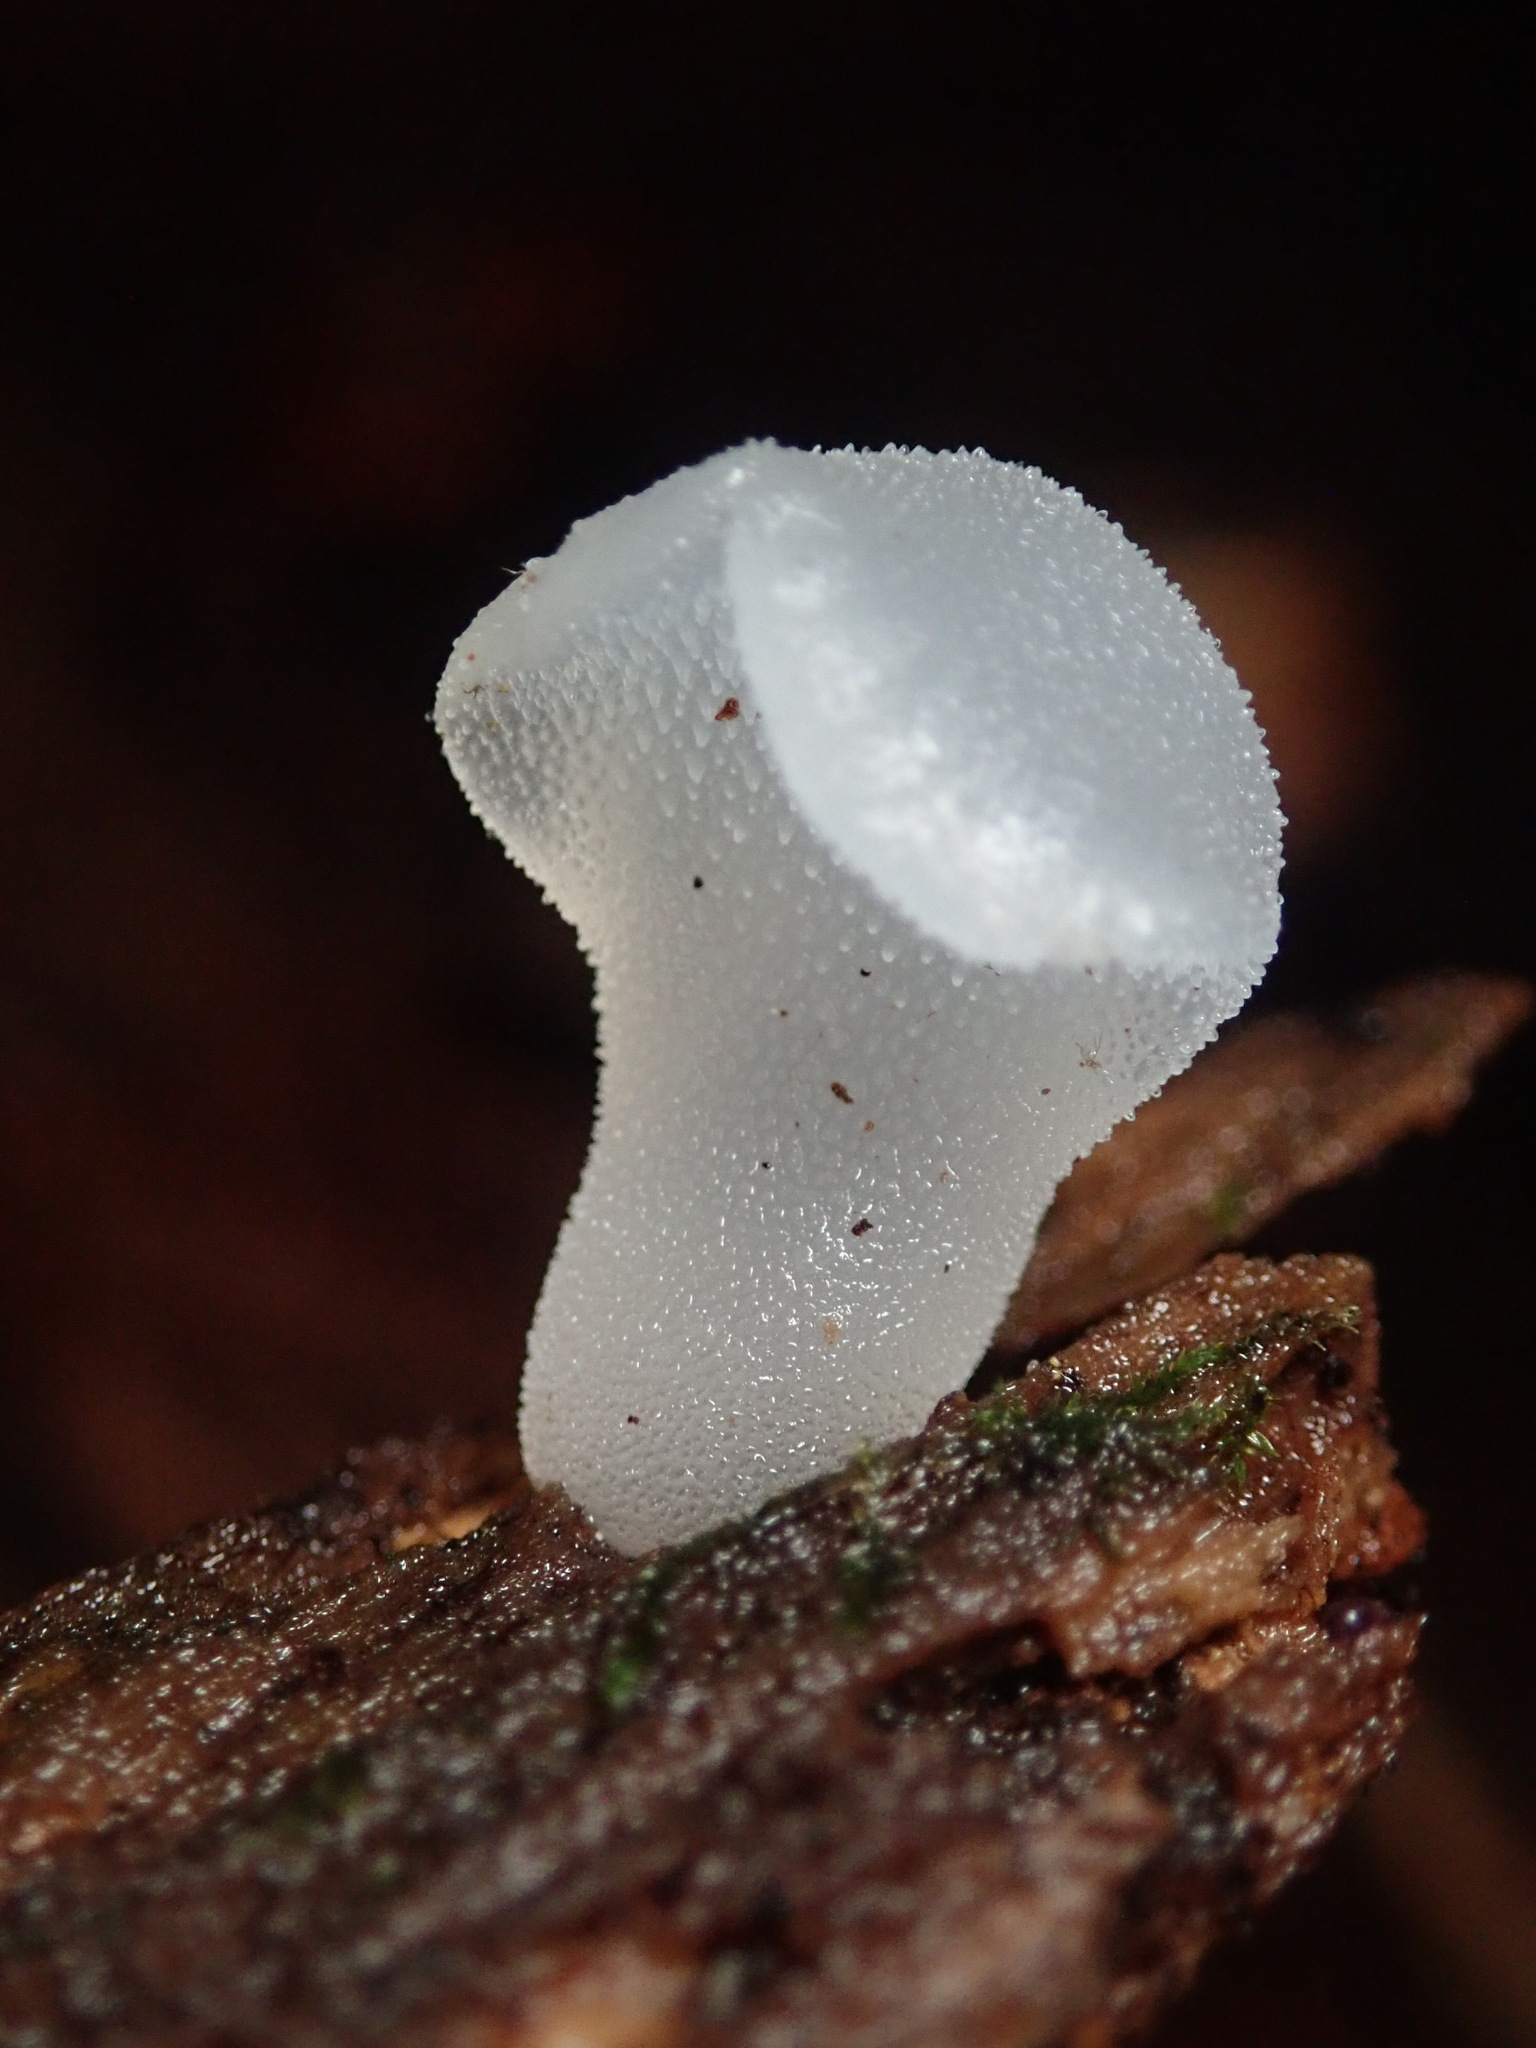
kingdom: Fungi
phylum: Basidiomycota
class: Agaricomycetes
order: Auriculariales
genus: Pseudohydnum
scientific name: Pseudohydnum gelatinosum
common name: Jelly tongue
